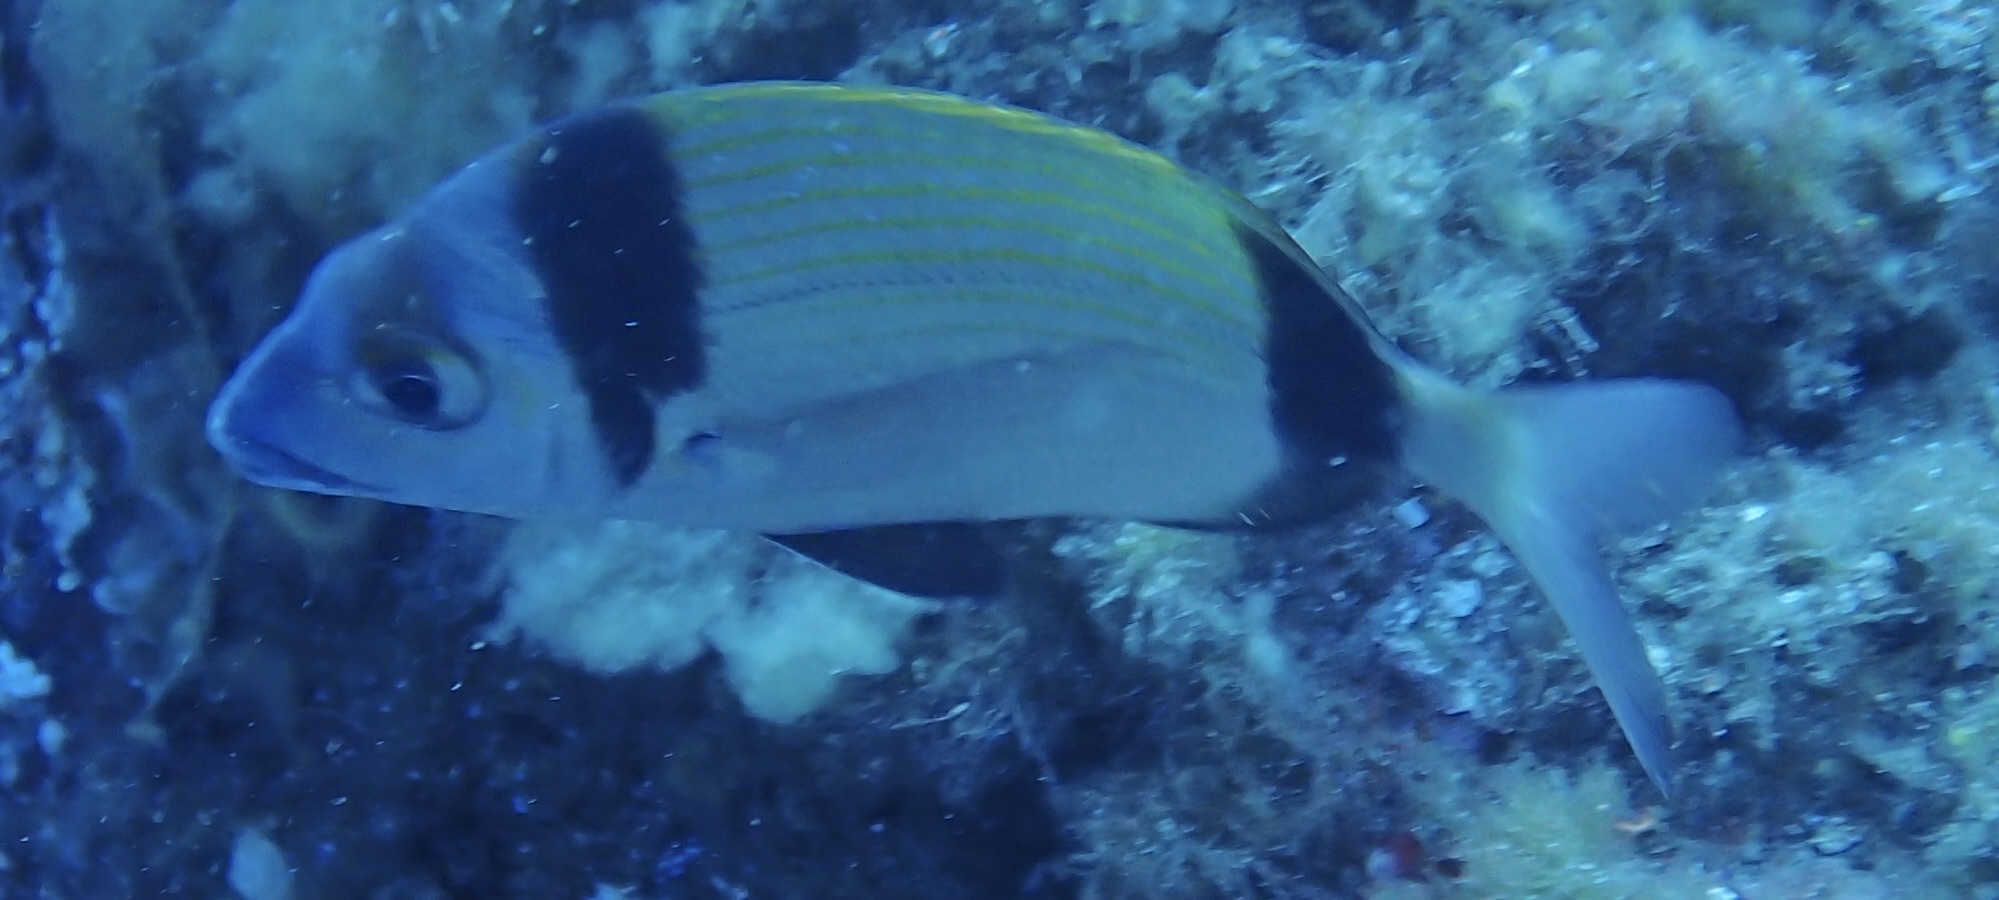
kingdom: Animalia
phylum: Chordata
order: Perciformes
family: Sparidae
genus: Diplodus
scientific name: Diplodus vulgaris
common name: Common two-banded seabream
